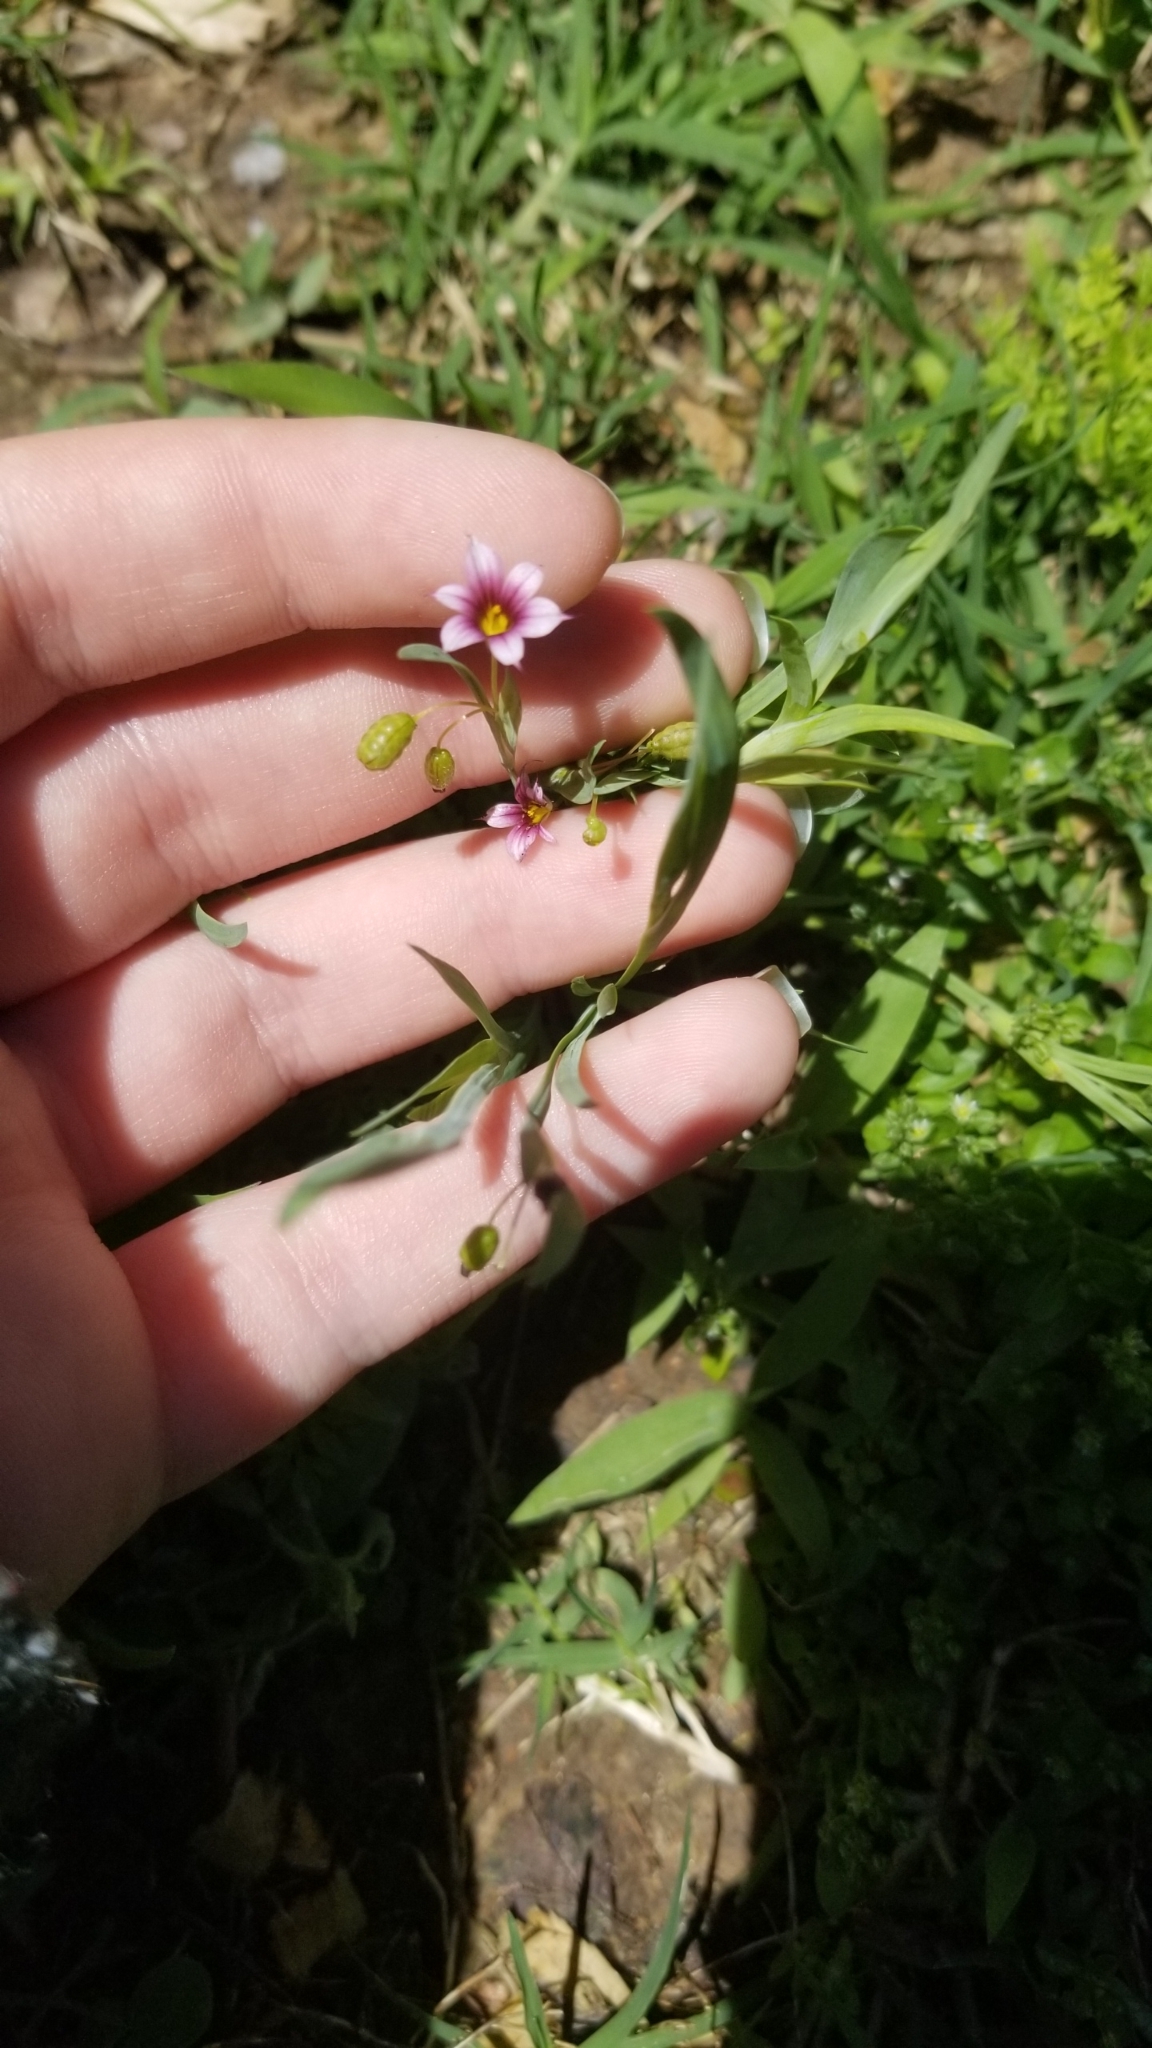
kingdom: Plantae
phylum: Tracheophyta
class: Liliopsida
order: Asparagales
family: Iridaceae
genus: Sisyrinchium
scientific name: Sisyrinchium minus
